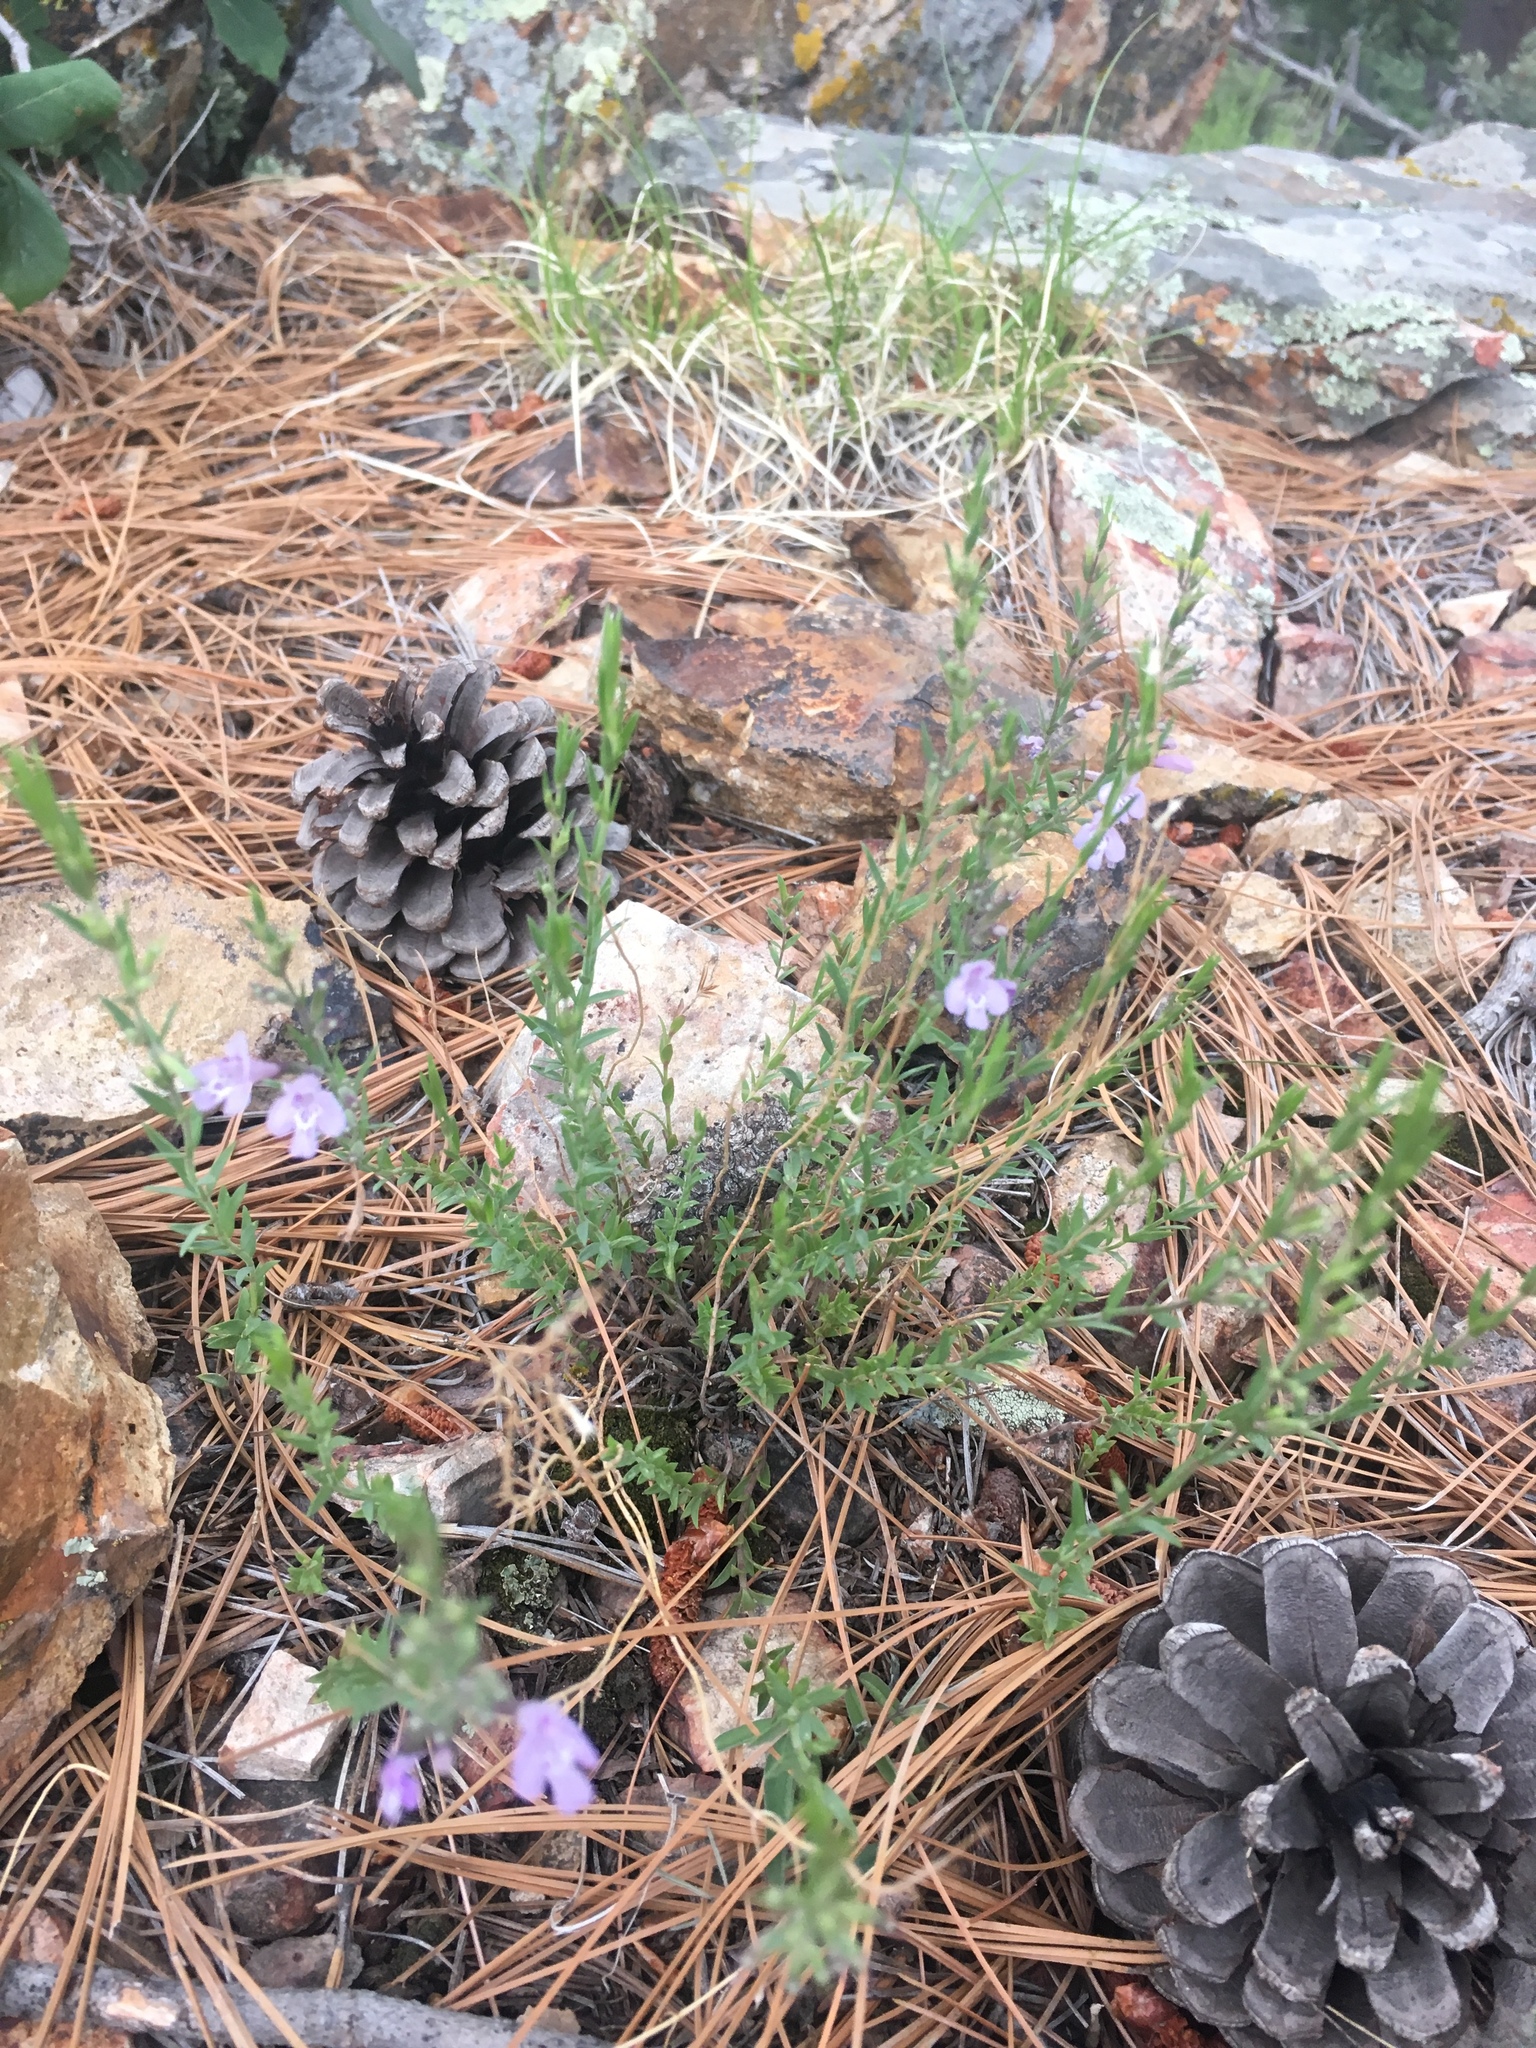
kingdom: Plantae
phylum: Tracheophyta
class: Magnoliopsida
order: Lamiales
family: Lamiaceae
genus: Hedeoma
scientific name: Hedeoma hyssopifolia
